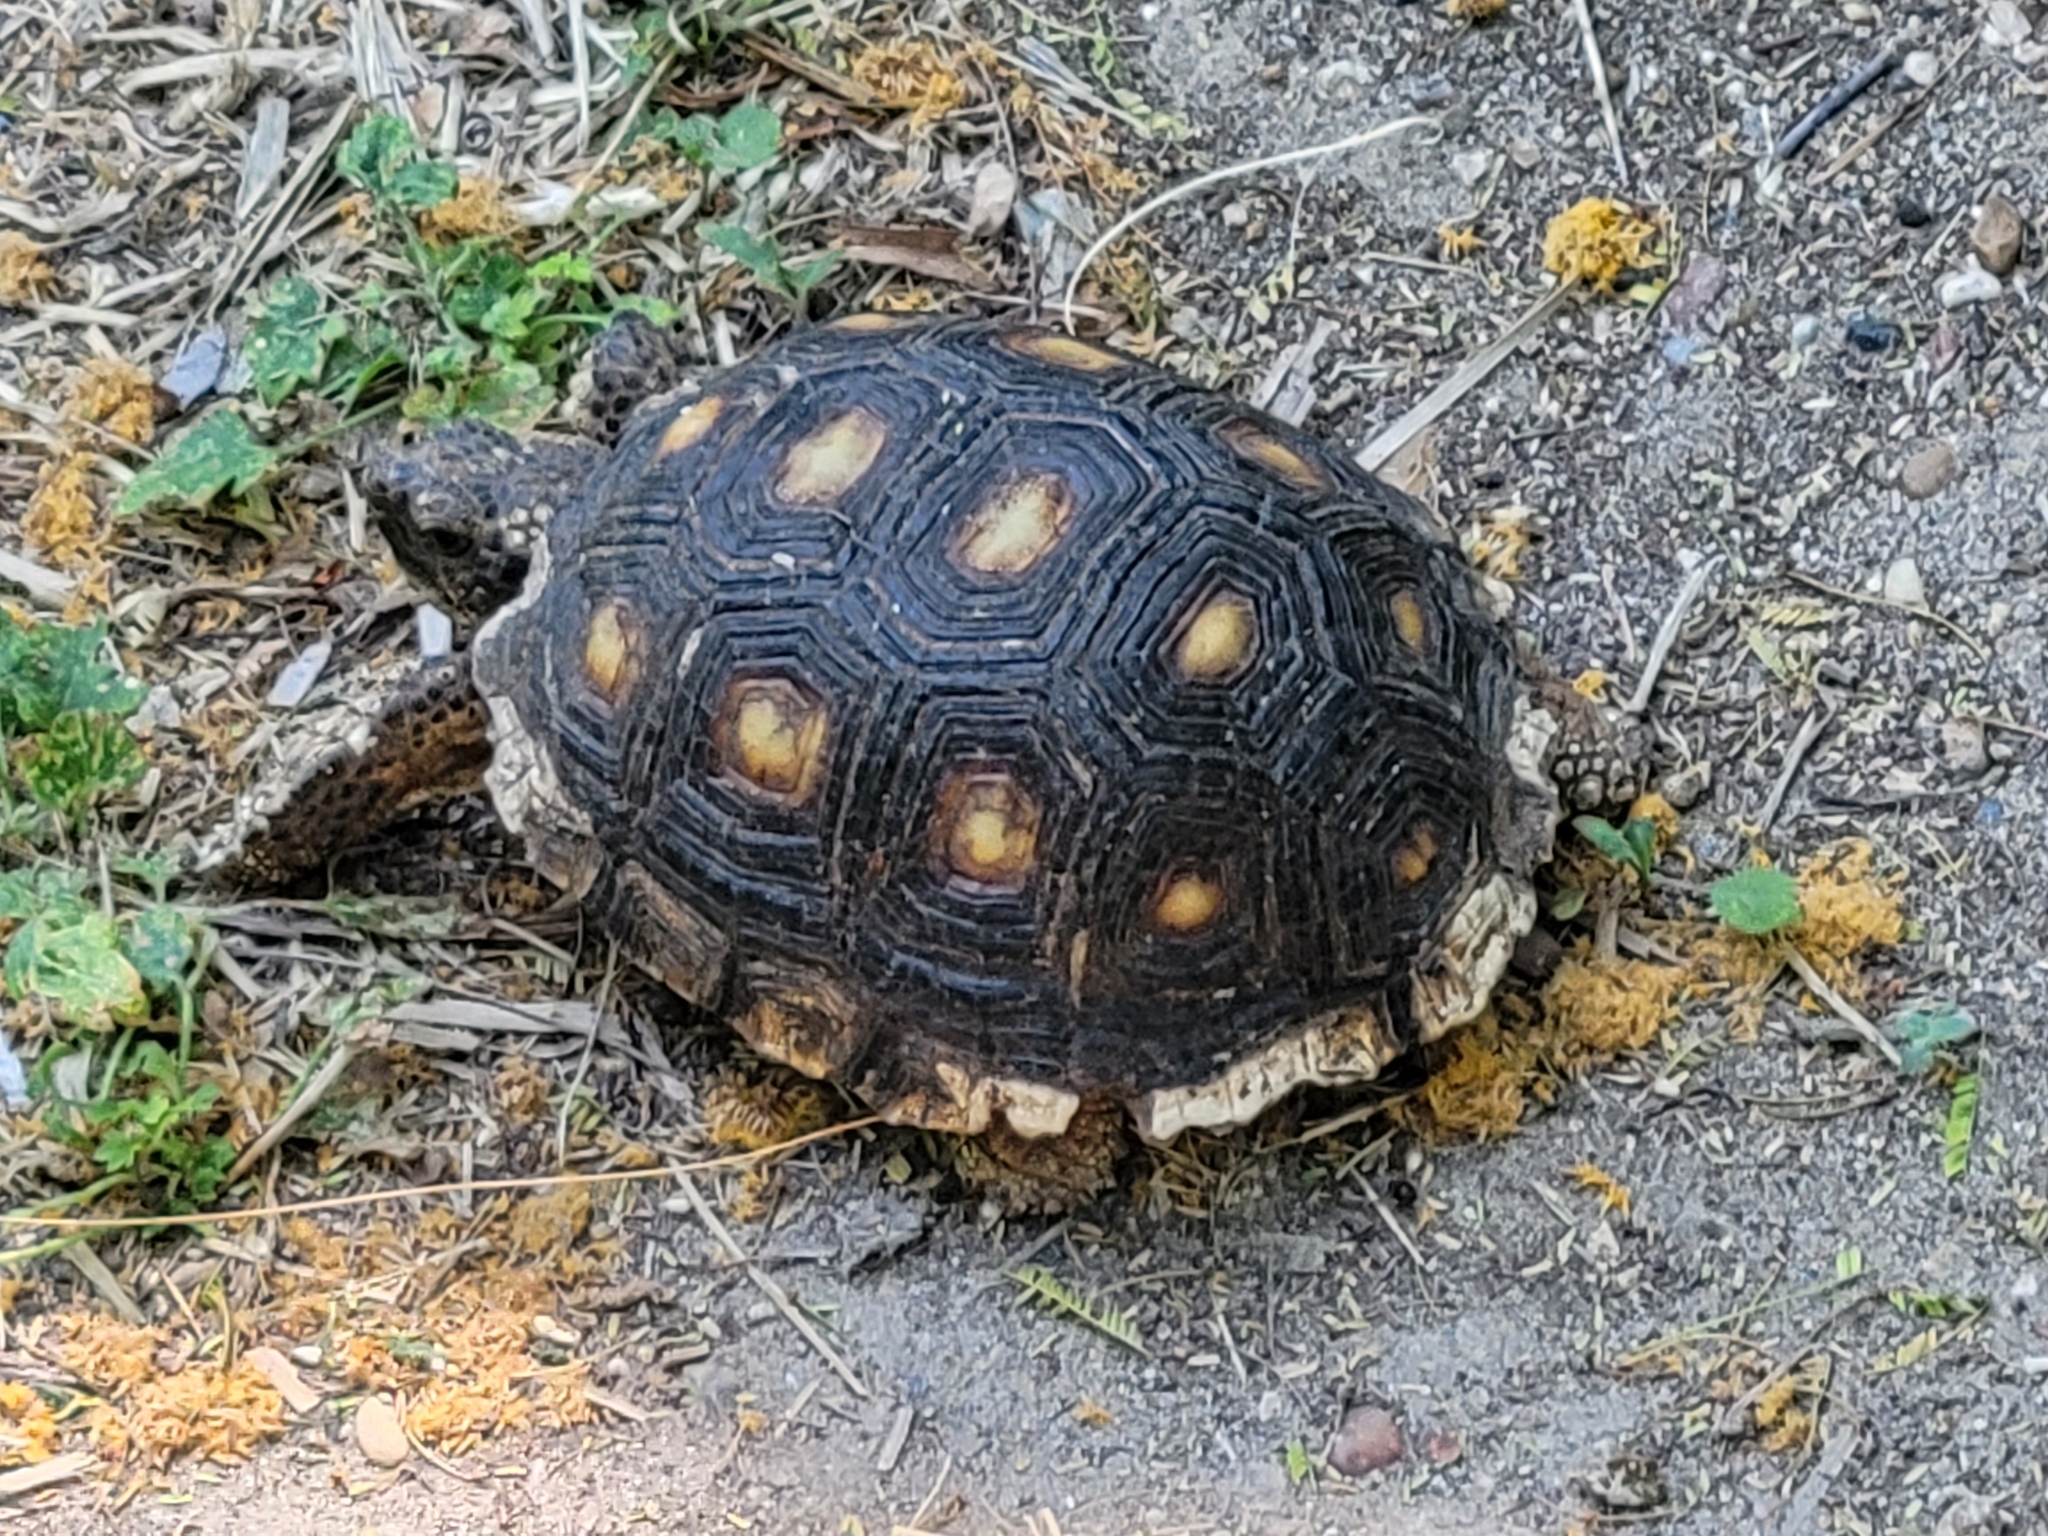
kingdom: Animalia
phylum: Chordata
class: Testudines
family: Testudinidae
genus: Gopherus
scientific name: Gopherus berlandieri
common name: Texas (gopher )tortoise
